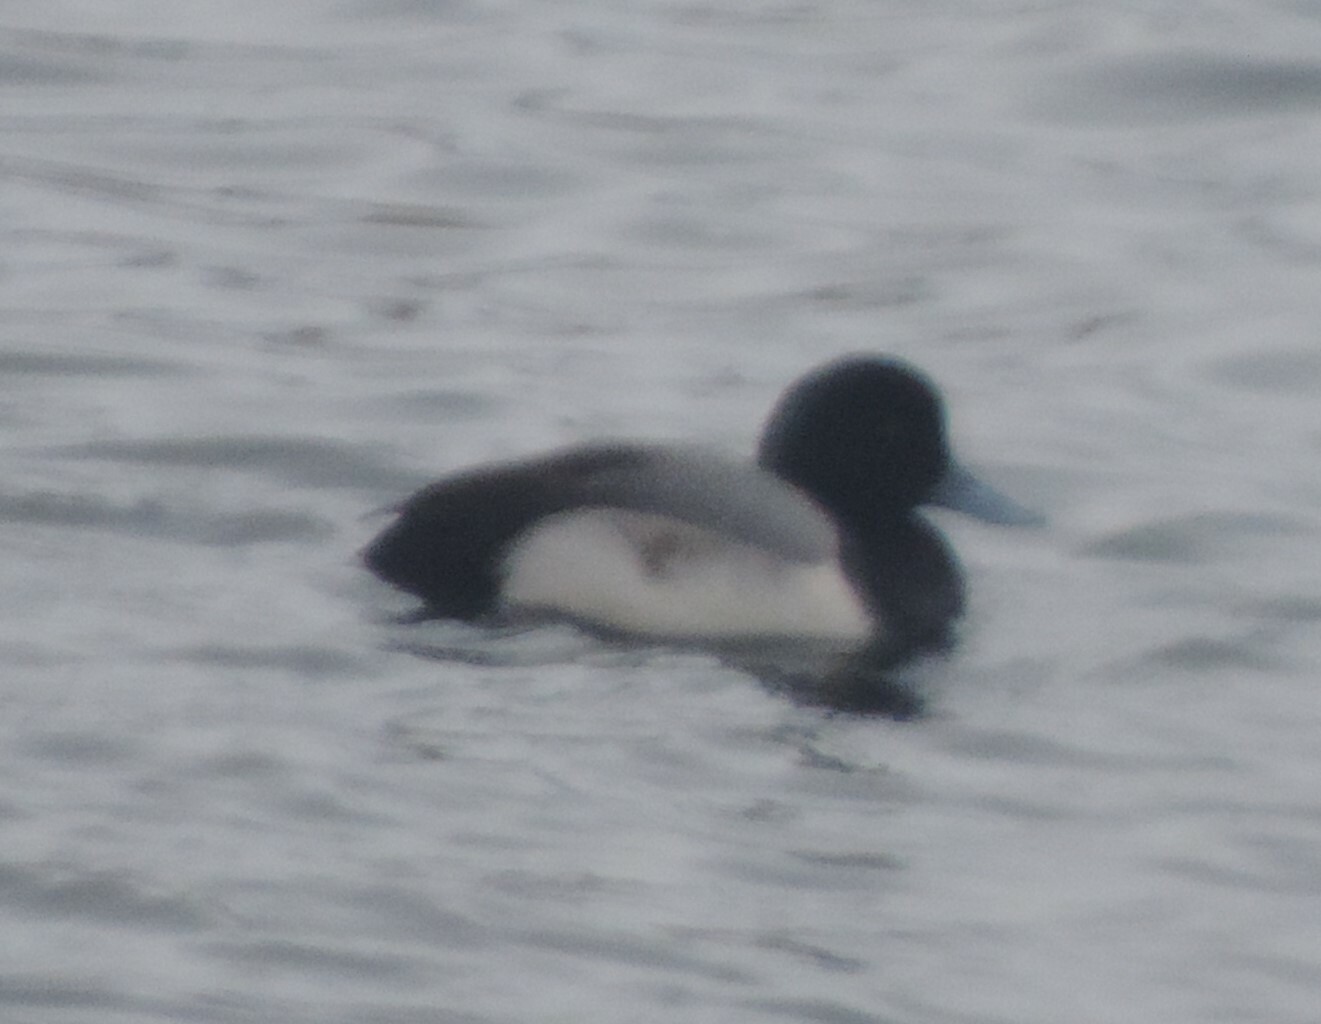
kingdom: Animalia
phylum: Chordata
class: Aves
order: Anseriformes
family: Anatidae
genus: Aythya
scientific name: Aythya marila
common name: Greater scaup
